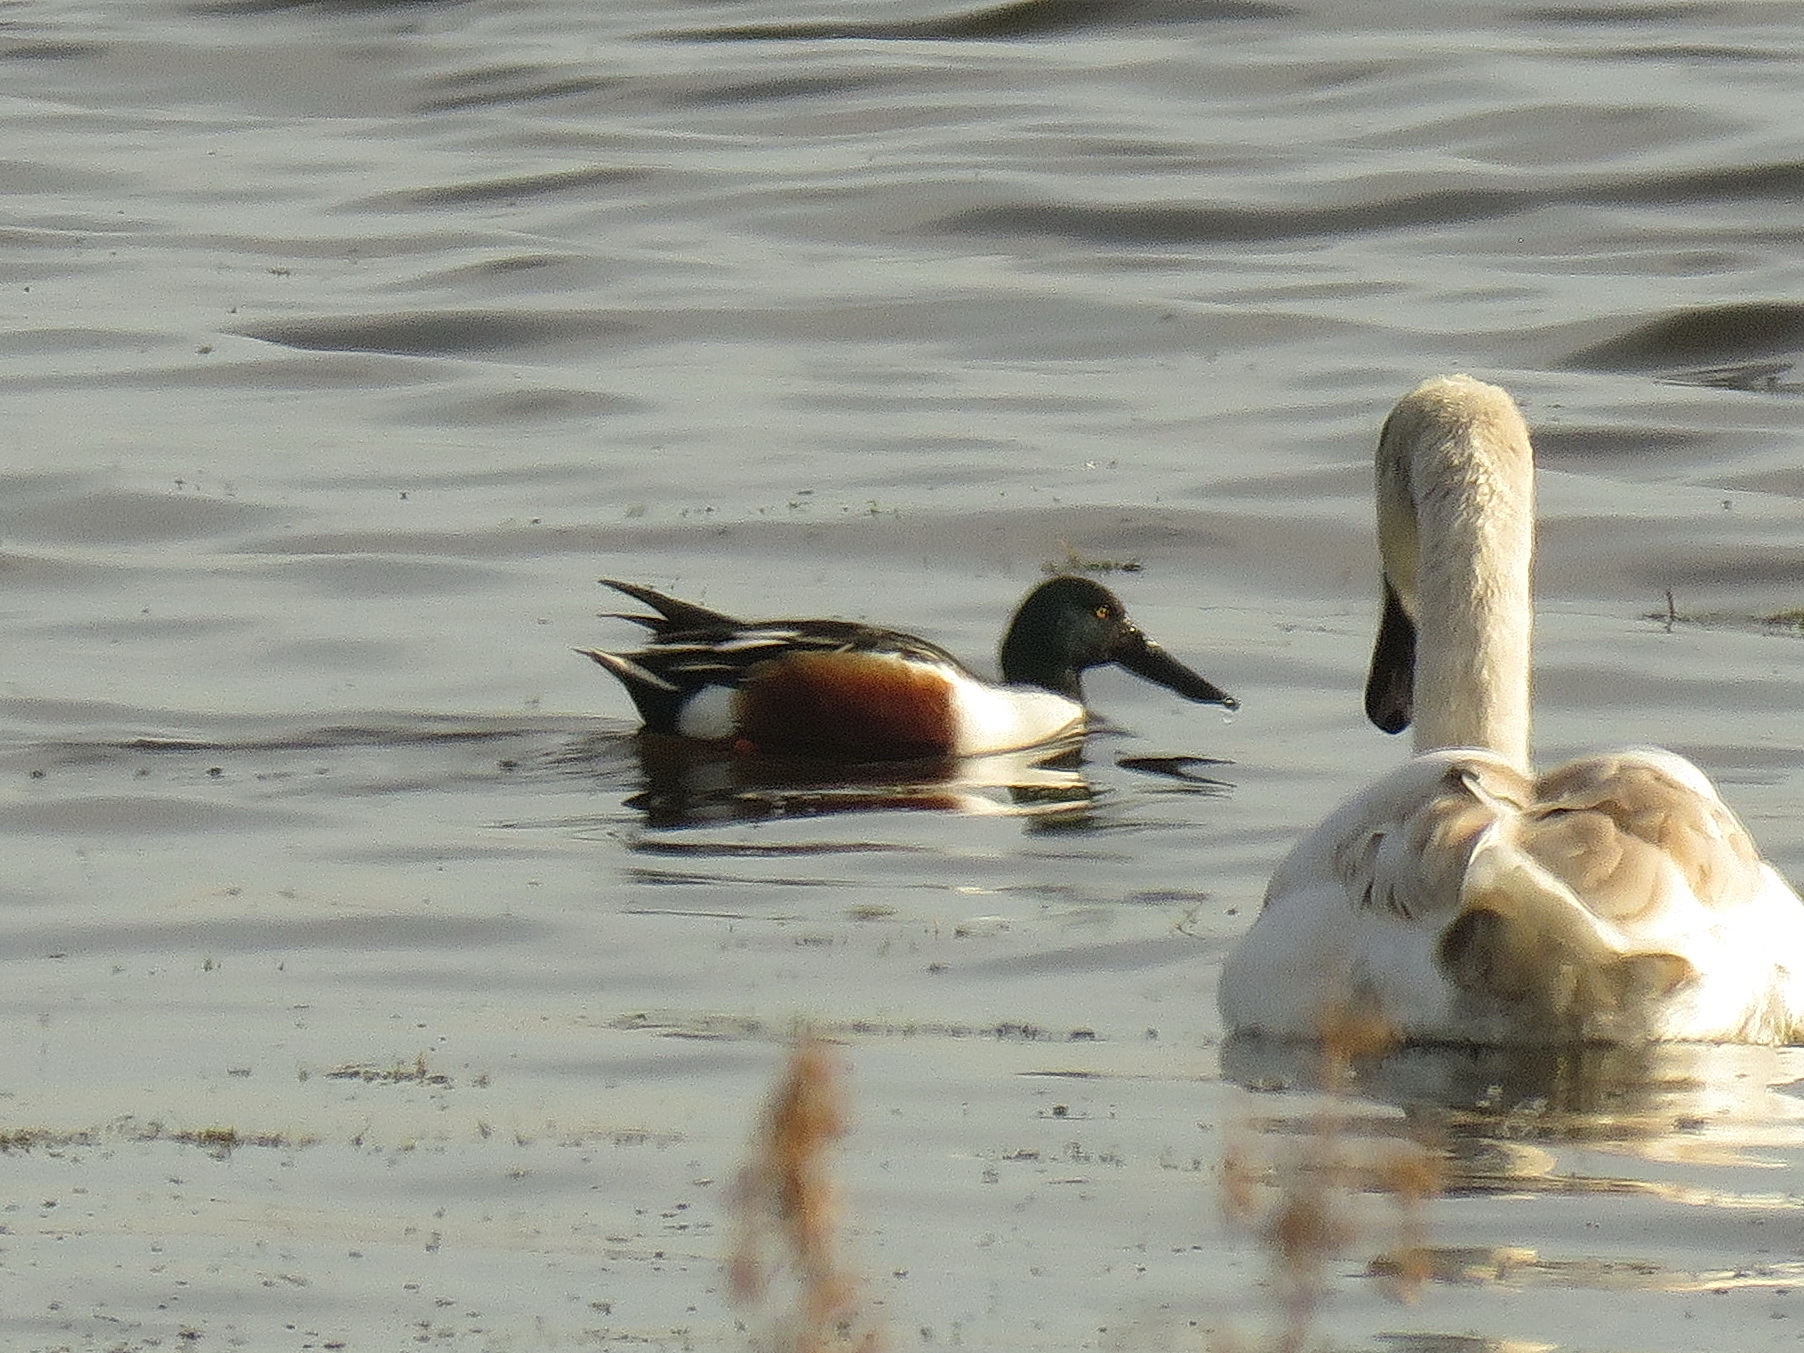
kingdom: Animalia
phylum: Chordata
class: Aves
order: Anseriformes
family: Anatidae
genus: Spatula
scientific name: Spatula clypeata
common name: Northern shoveler
